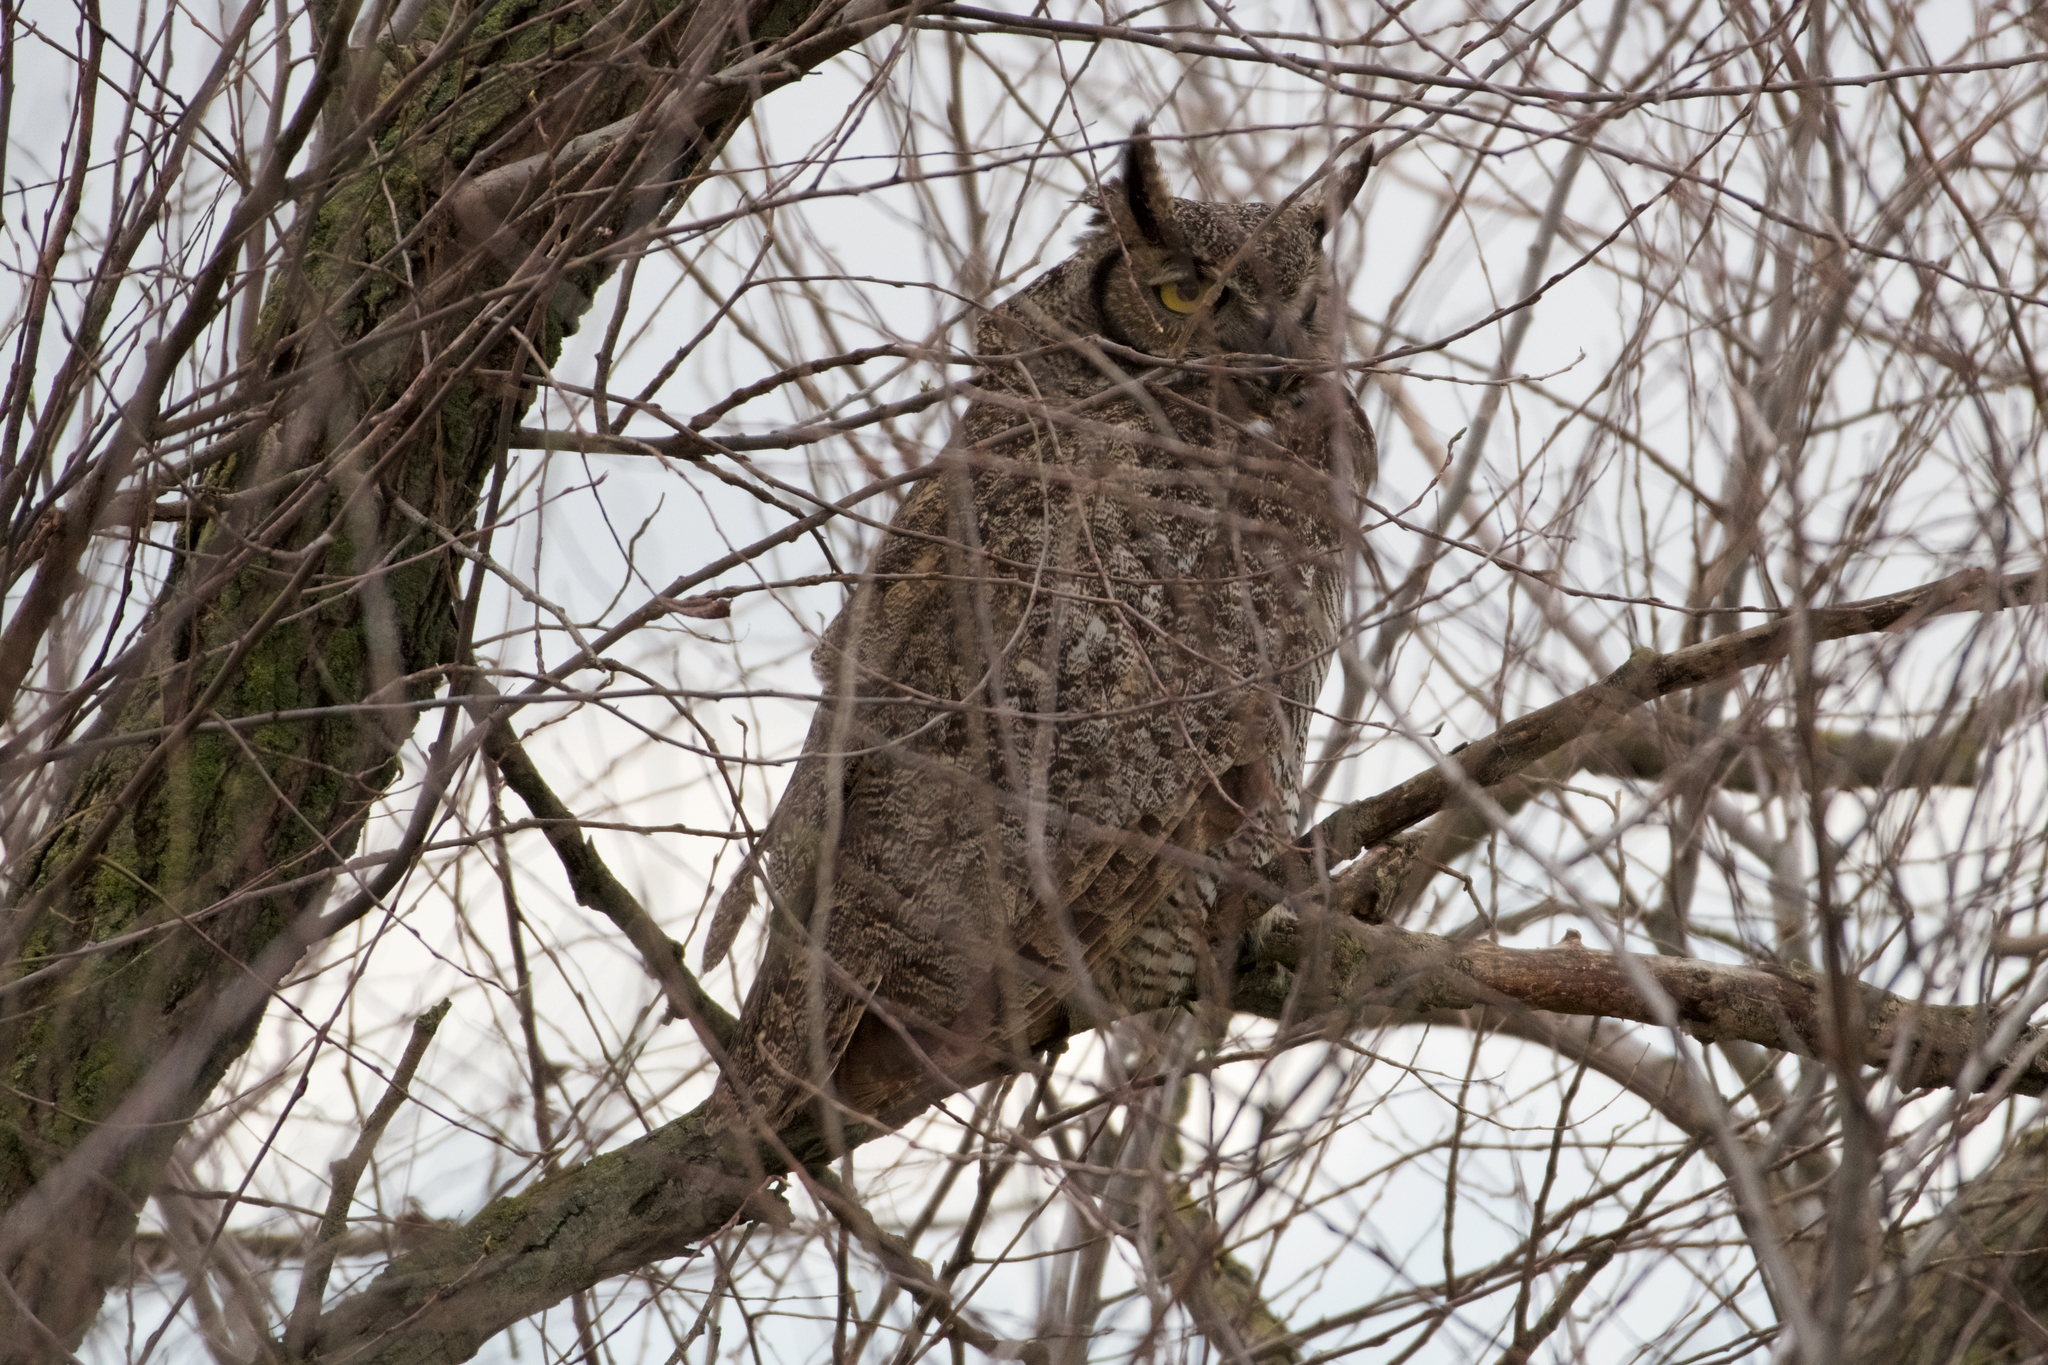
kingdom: Animalia
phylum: Chordata
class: Aves
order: Strigiformes
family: Strigidae
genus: Bubo
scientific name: Bubo virginianus
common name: Great horned owl
